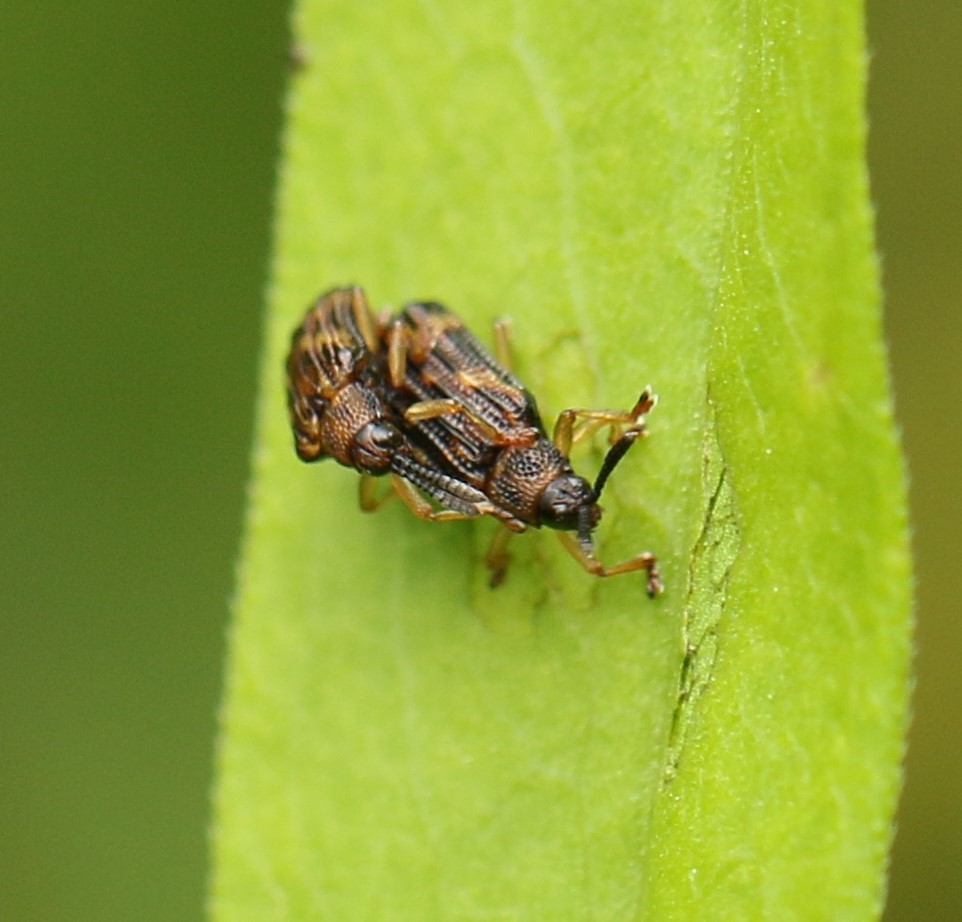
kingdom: Animalia
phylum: Arthropoda
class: Insecta
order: Coleoptera
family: Chrysomelidae
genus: Sumitrosis
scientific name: Sumitrosis inaequalis
